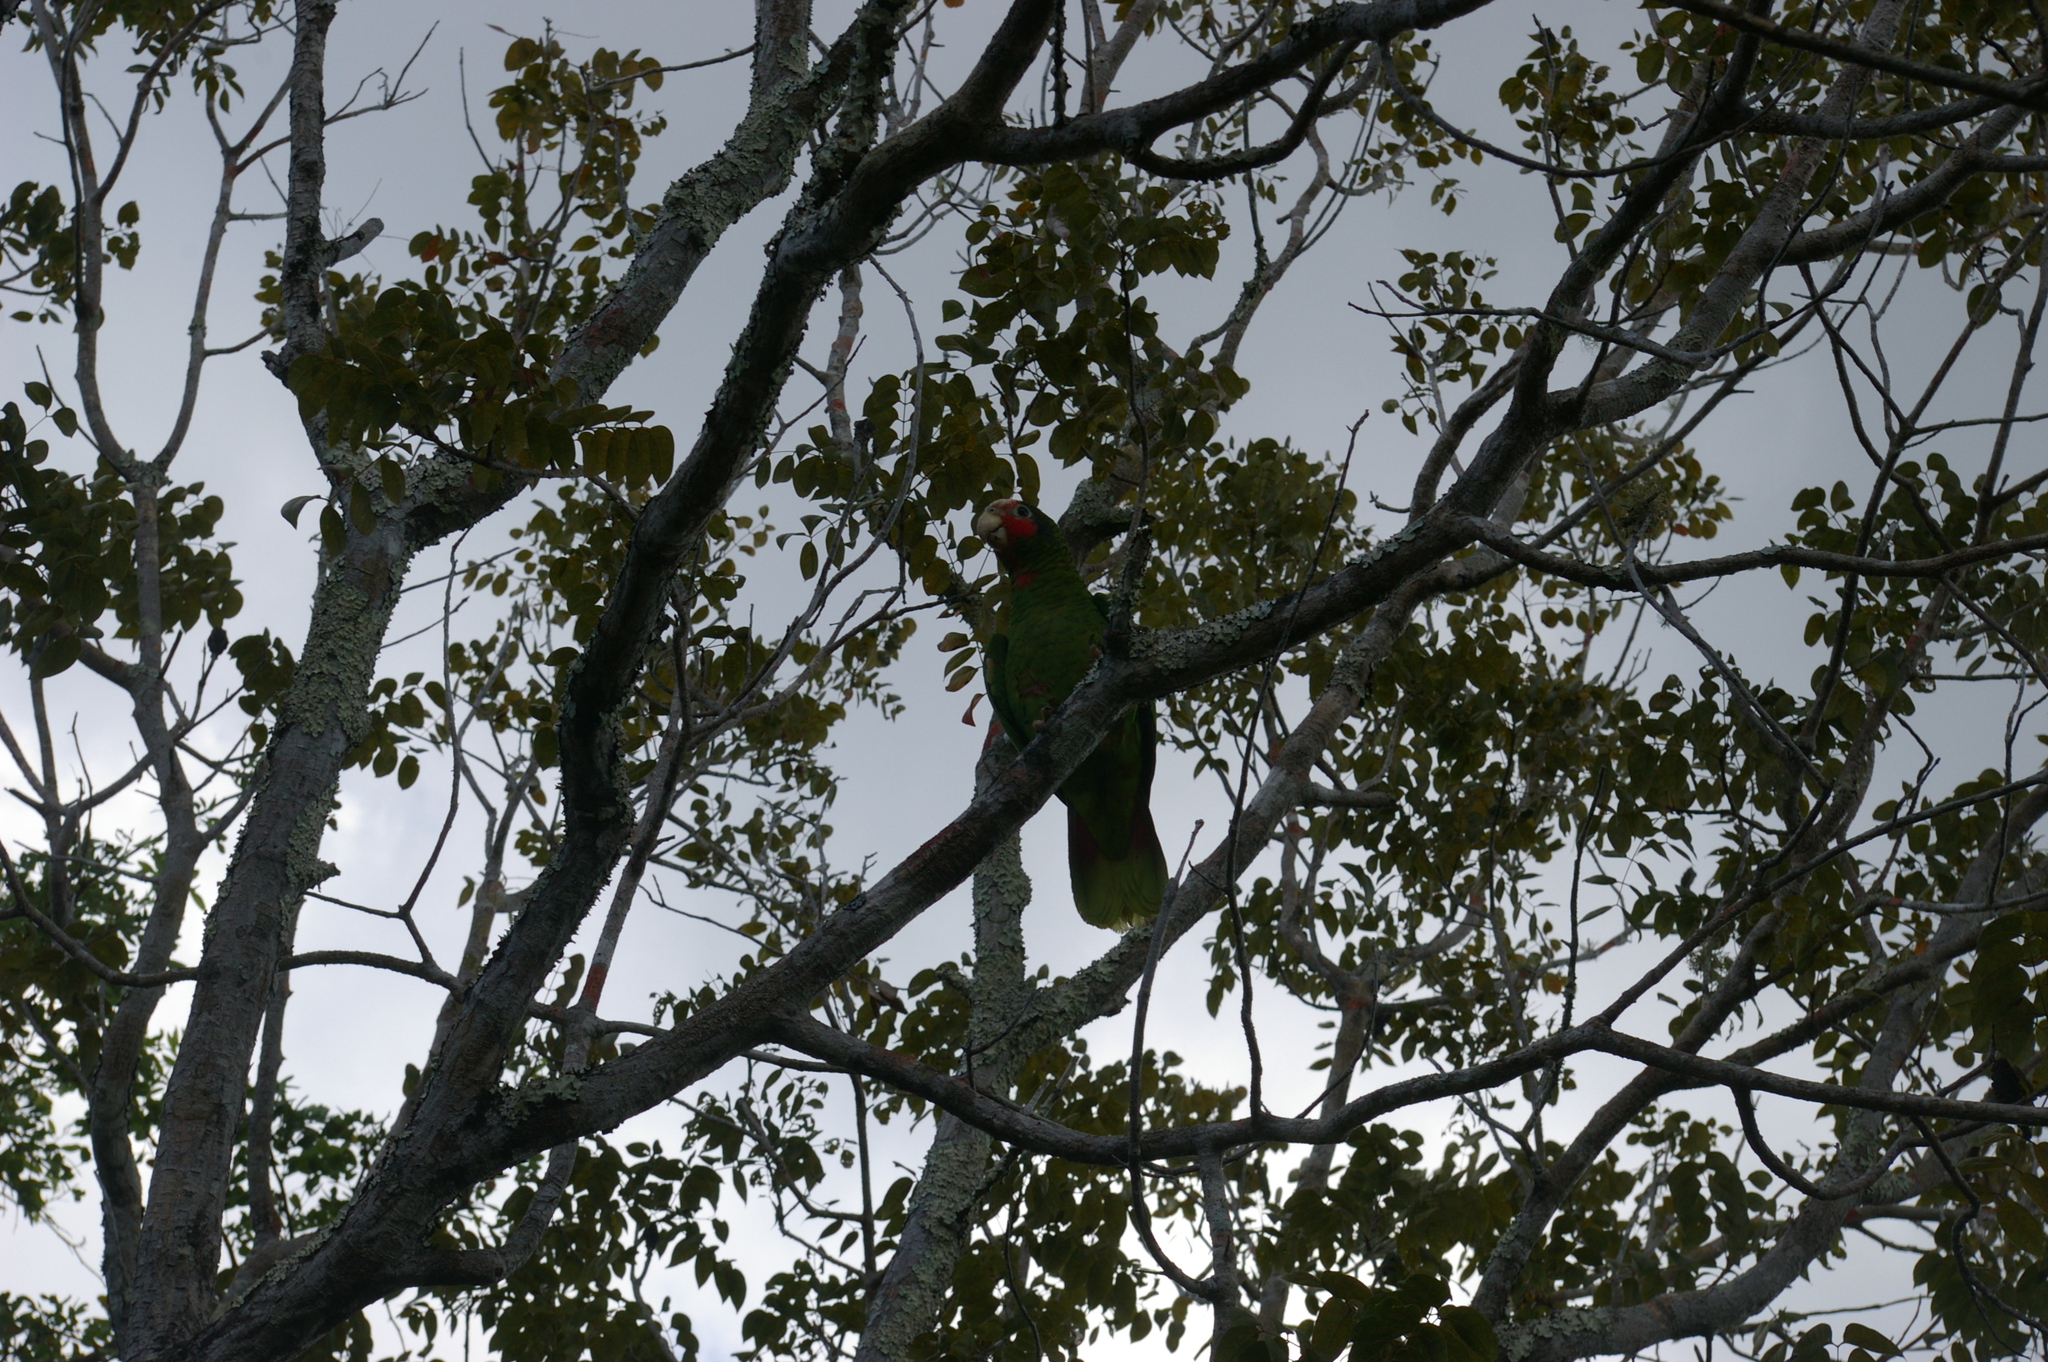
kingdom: Animalia
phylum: Chordata
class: Aves
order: Psittaciformes
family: Psittacidae
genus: Amazona
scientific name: Amazona leucocephala
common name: Cuban amazon
